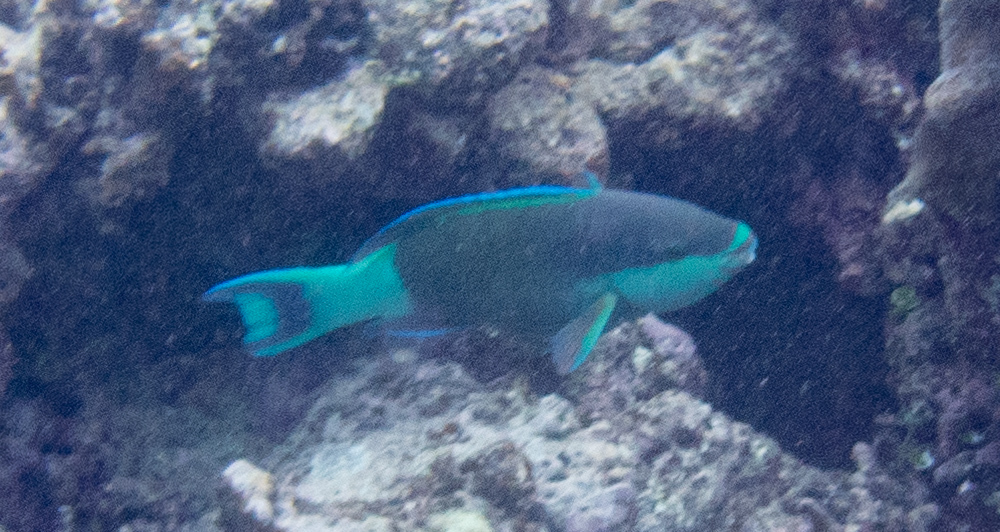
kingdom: Animalia
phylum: Chordata
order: Perciformes
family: Scaridae
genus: Scarus
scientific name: Scarus frenatus
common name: Bridled parrotfish
